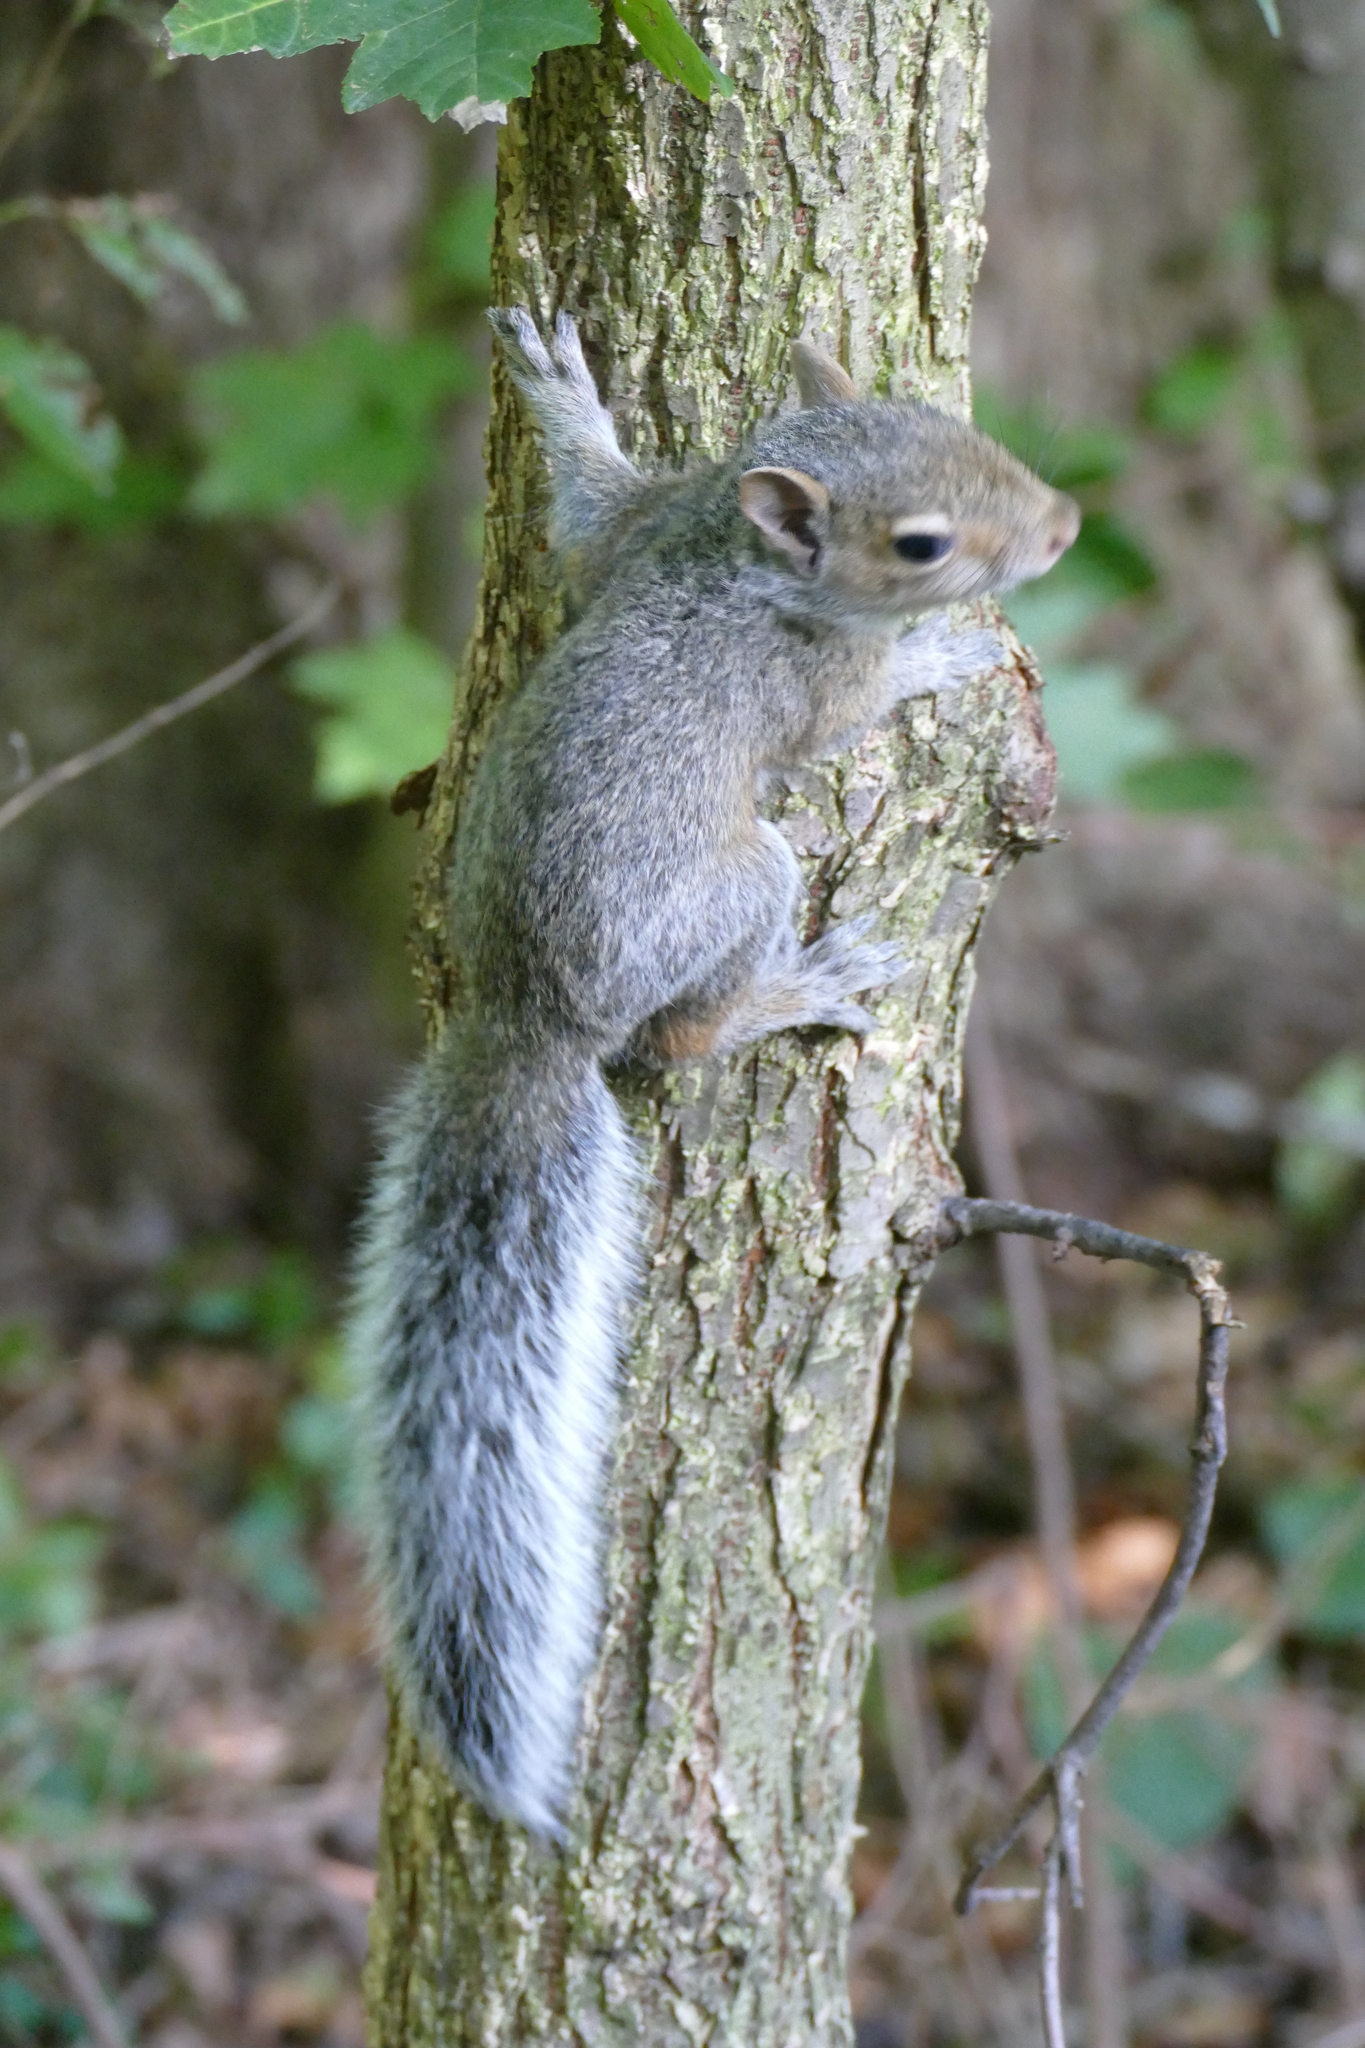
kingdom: Animalia
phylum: Chordata
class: Mammalia
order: Rodentia
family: Sciuridae
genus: Sciurus
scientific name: Sciurus carolinensis
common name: Eastern gray squirrel
